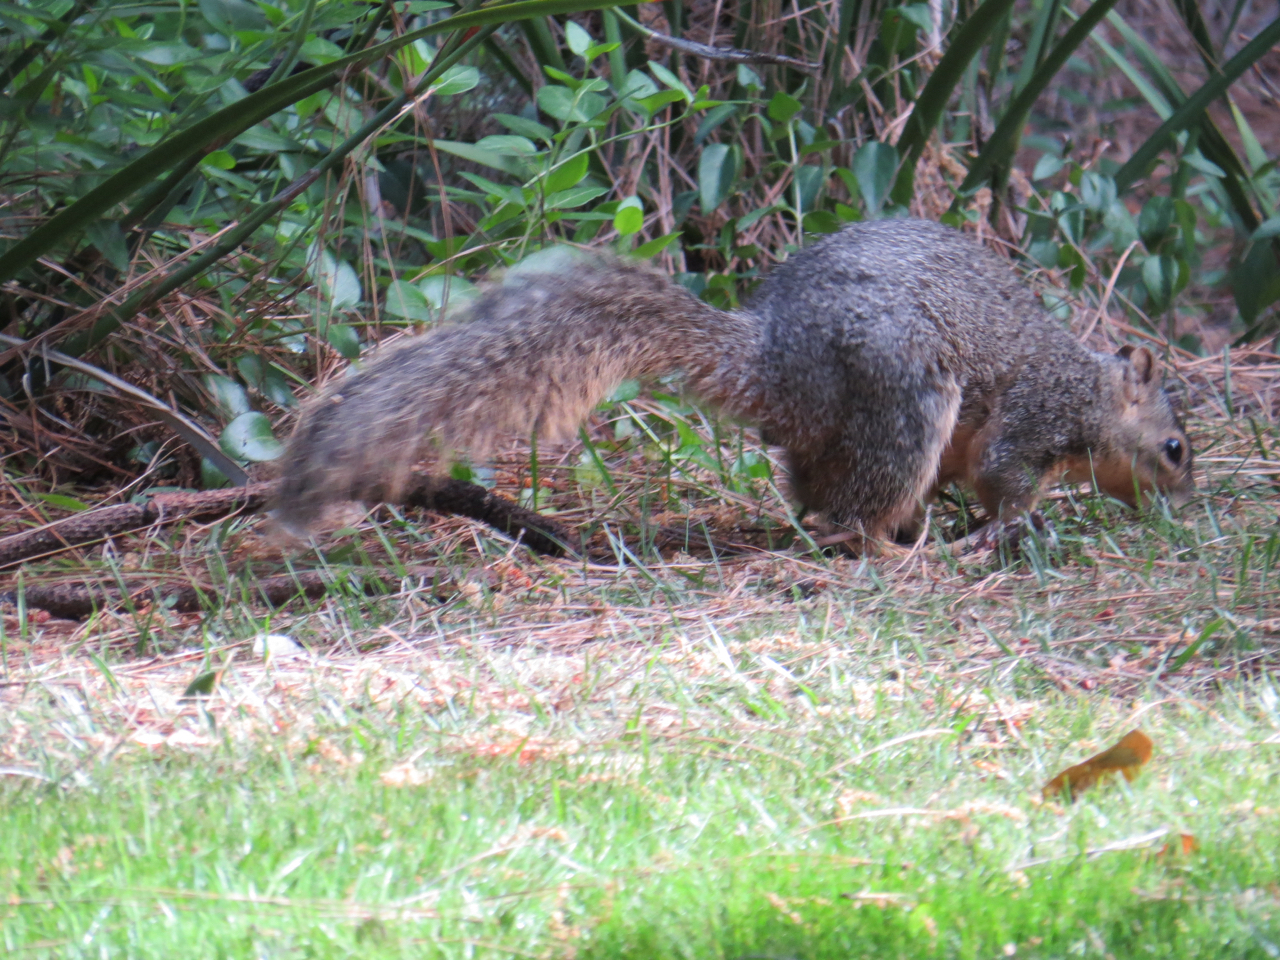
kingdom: Animalia
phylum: Chordata
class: Mammalia
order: Rodentia
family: Sciuridae
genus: Sciurus
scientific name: Sciurus niger
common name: Fox squirrel
